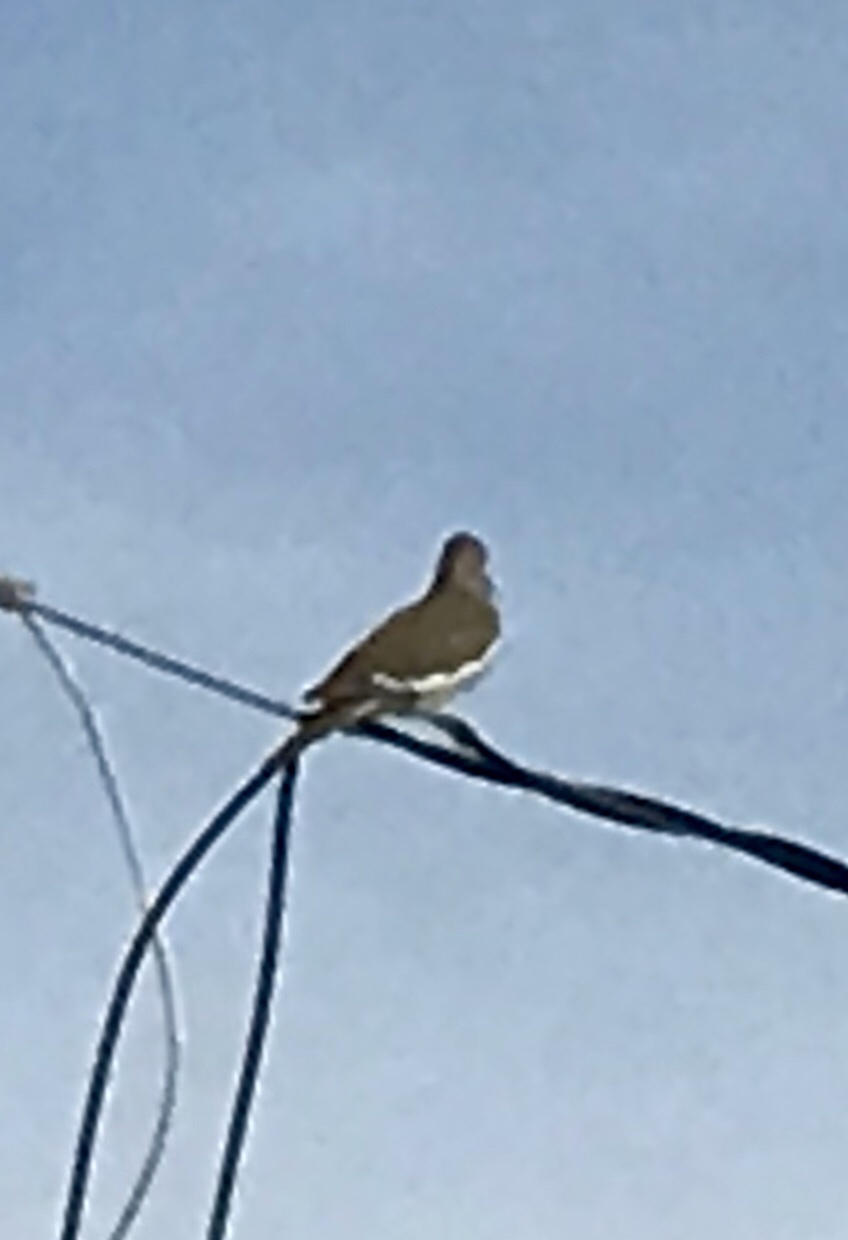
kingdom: Animalia
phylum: Chordata
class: Aves
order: Columbiformes
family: Columbidae
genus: Zenaida
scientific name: Zenaida asiatica
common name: White-winged dove
